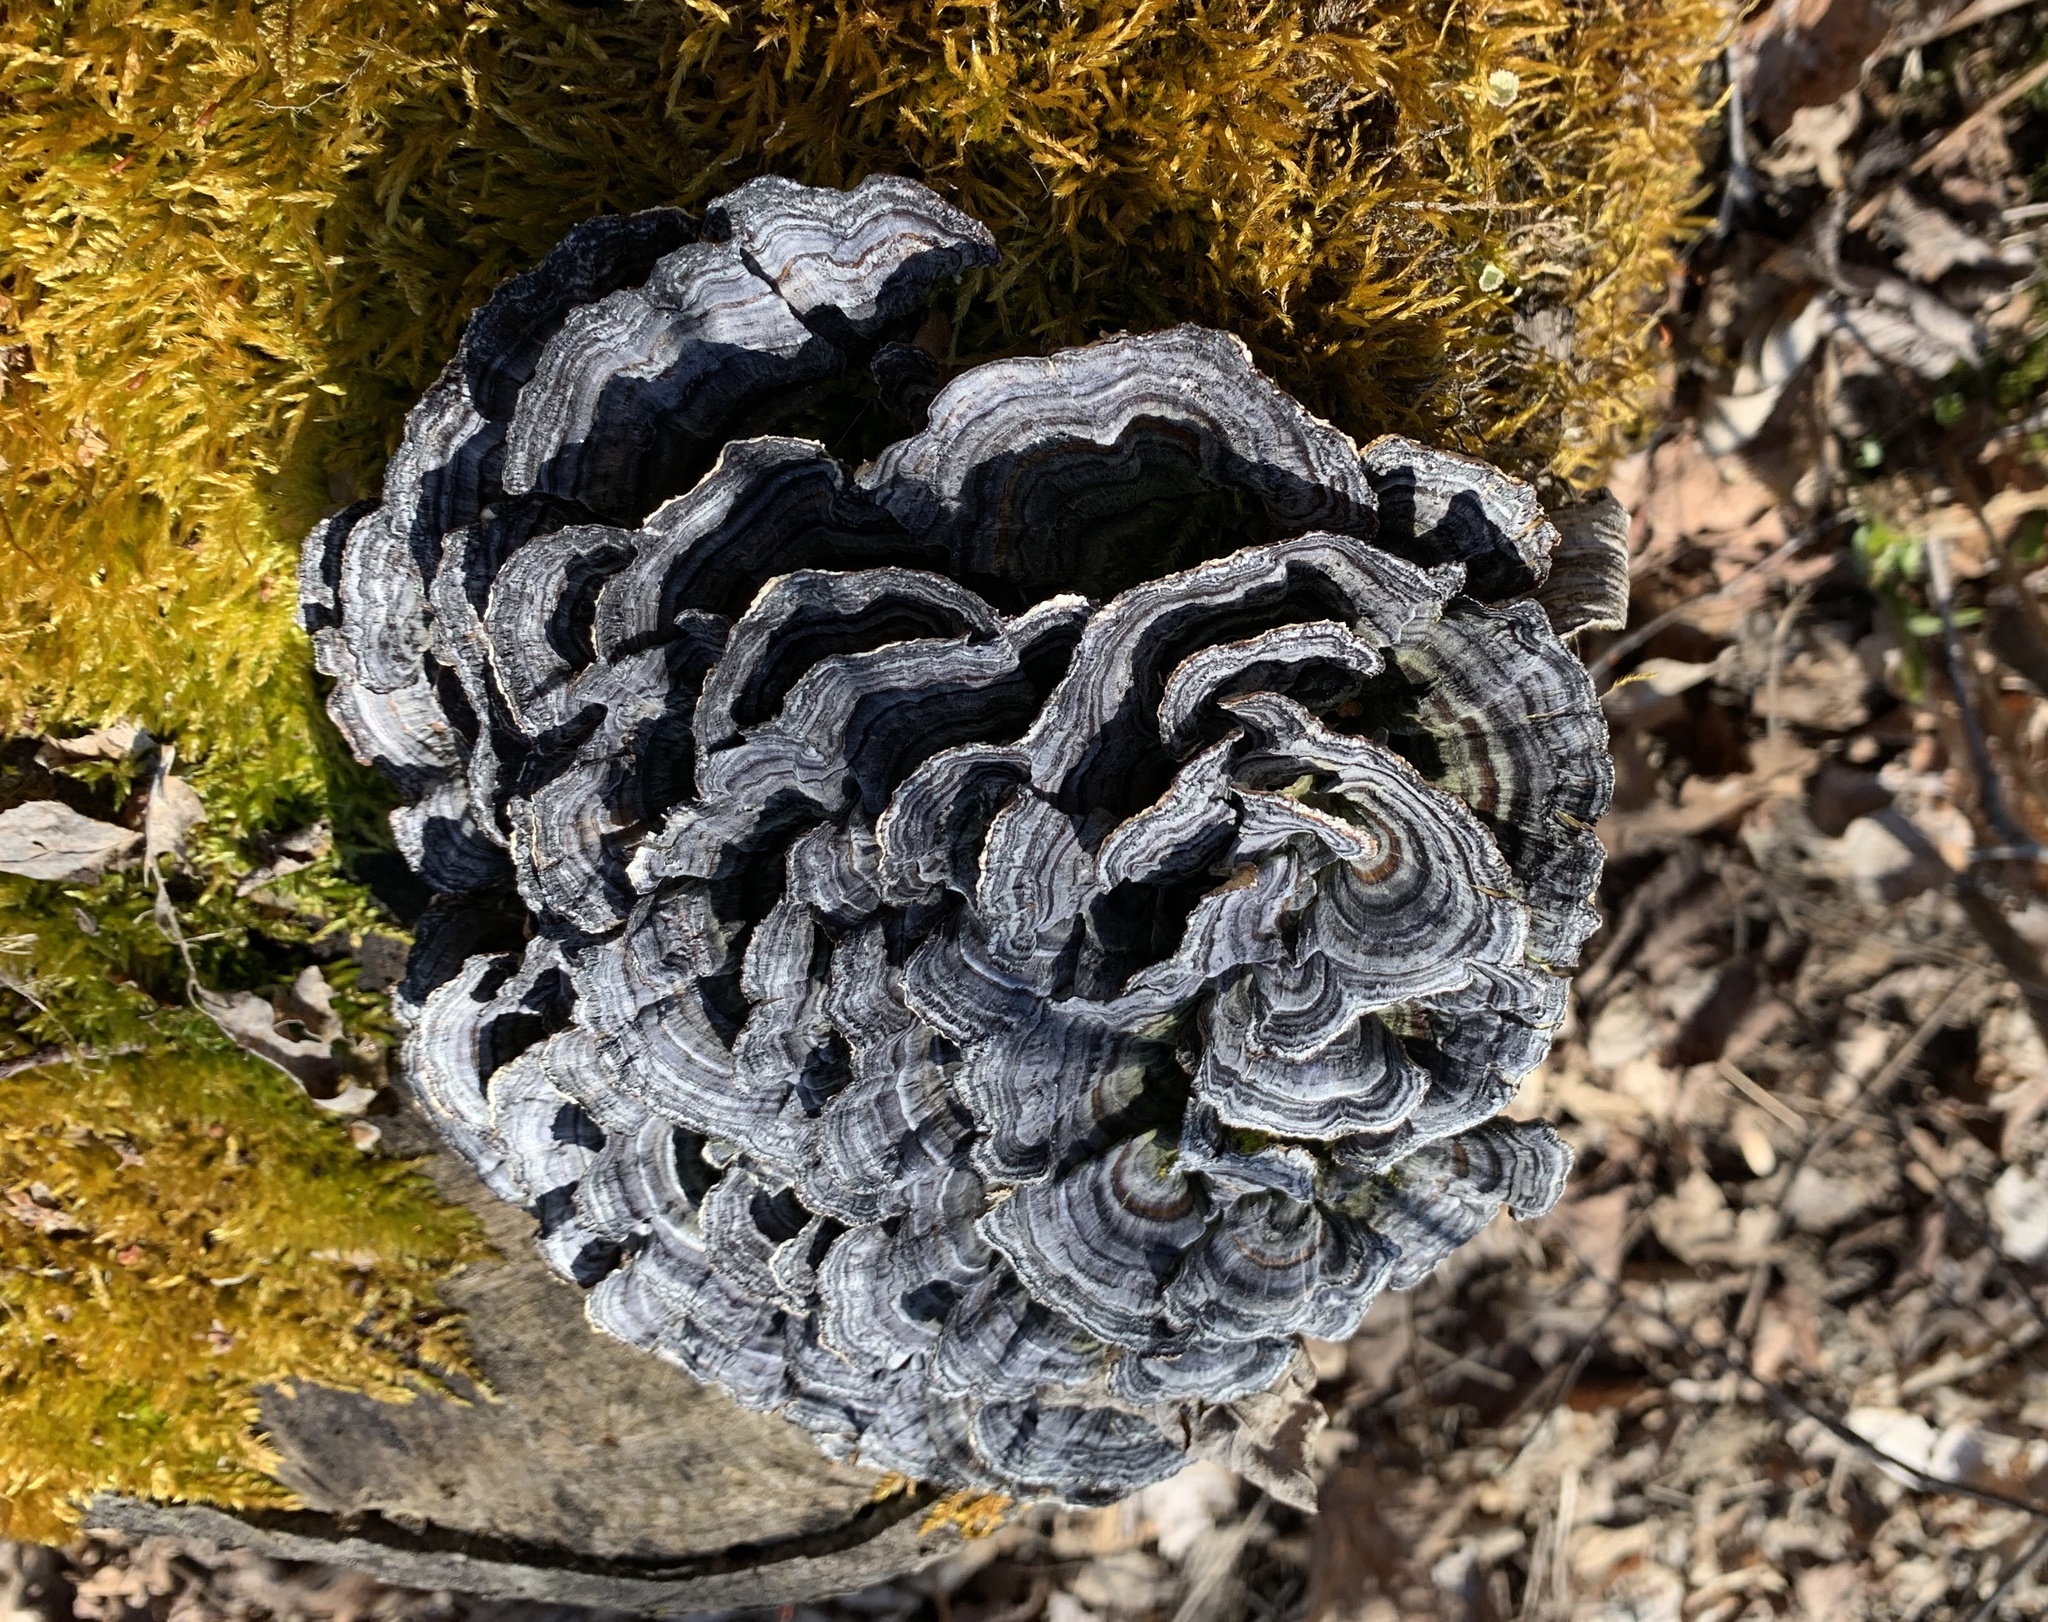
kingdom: Fungi
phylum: Basidiomycota
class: Agaricomycetes
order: Polyporales
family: Polyporaceae
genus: Trametes
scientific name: Trametes versicolor
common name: Turkeytail
